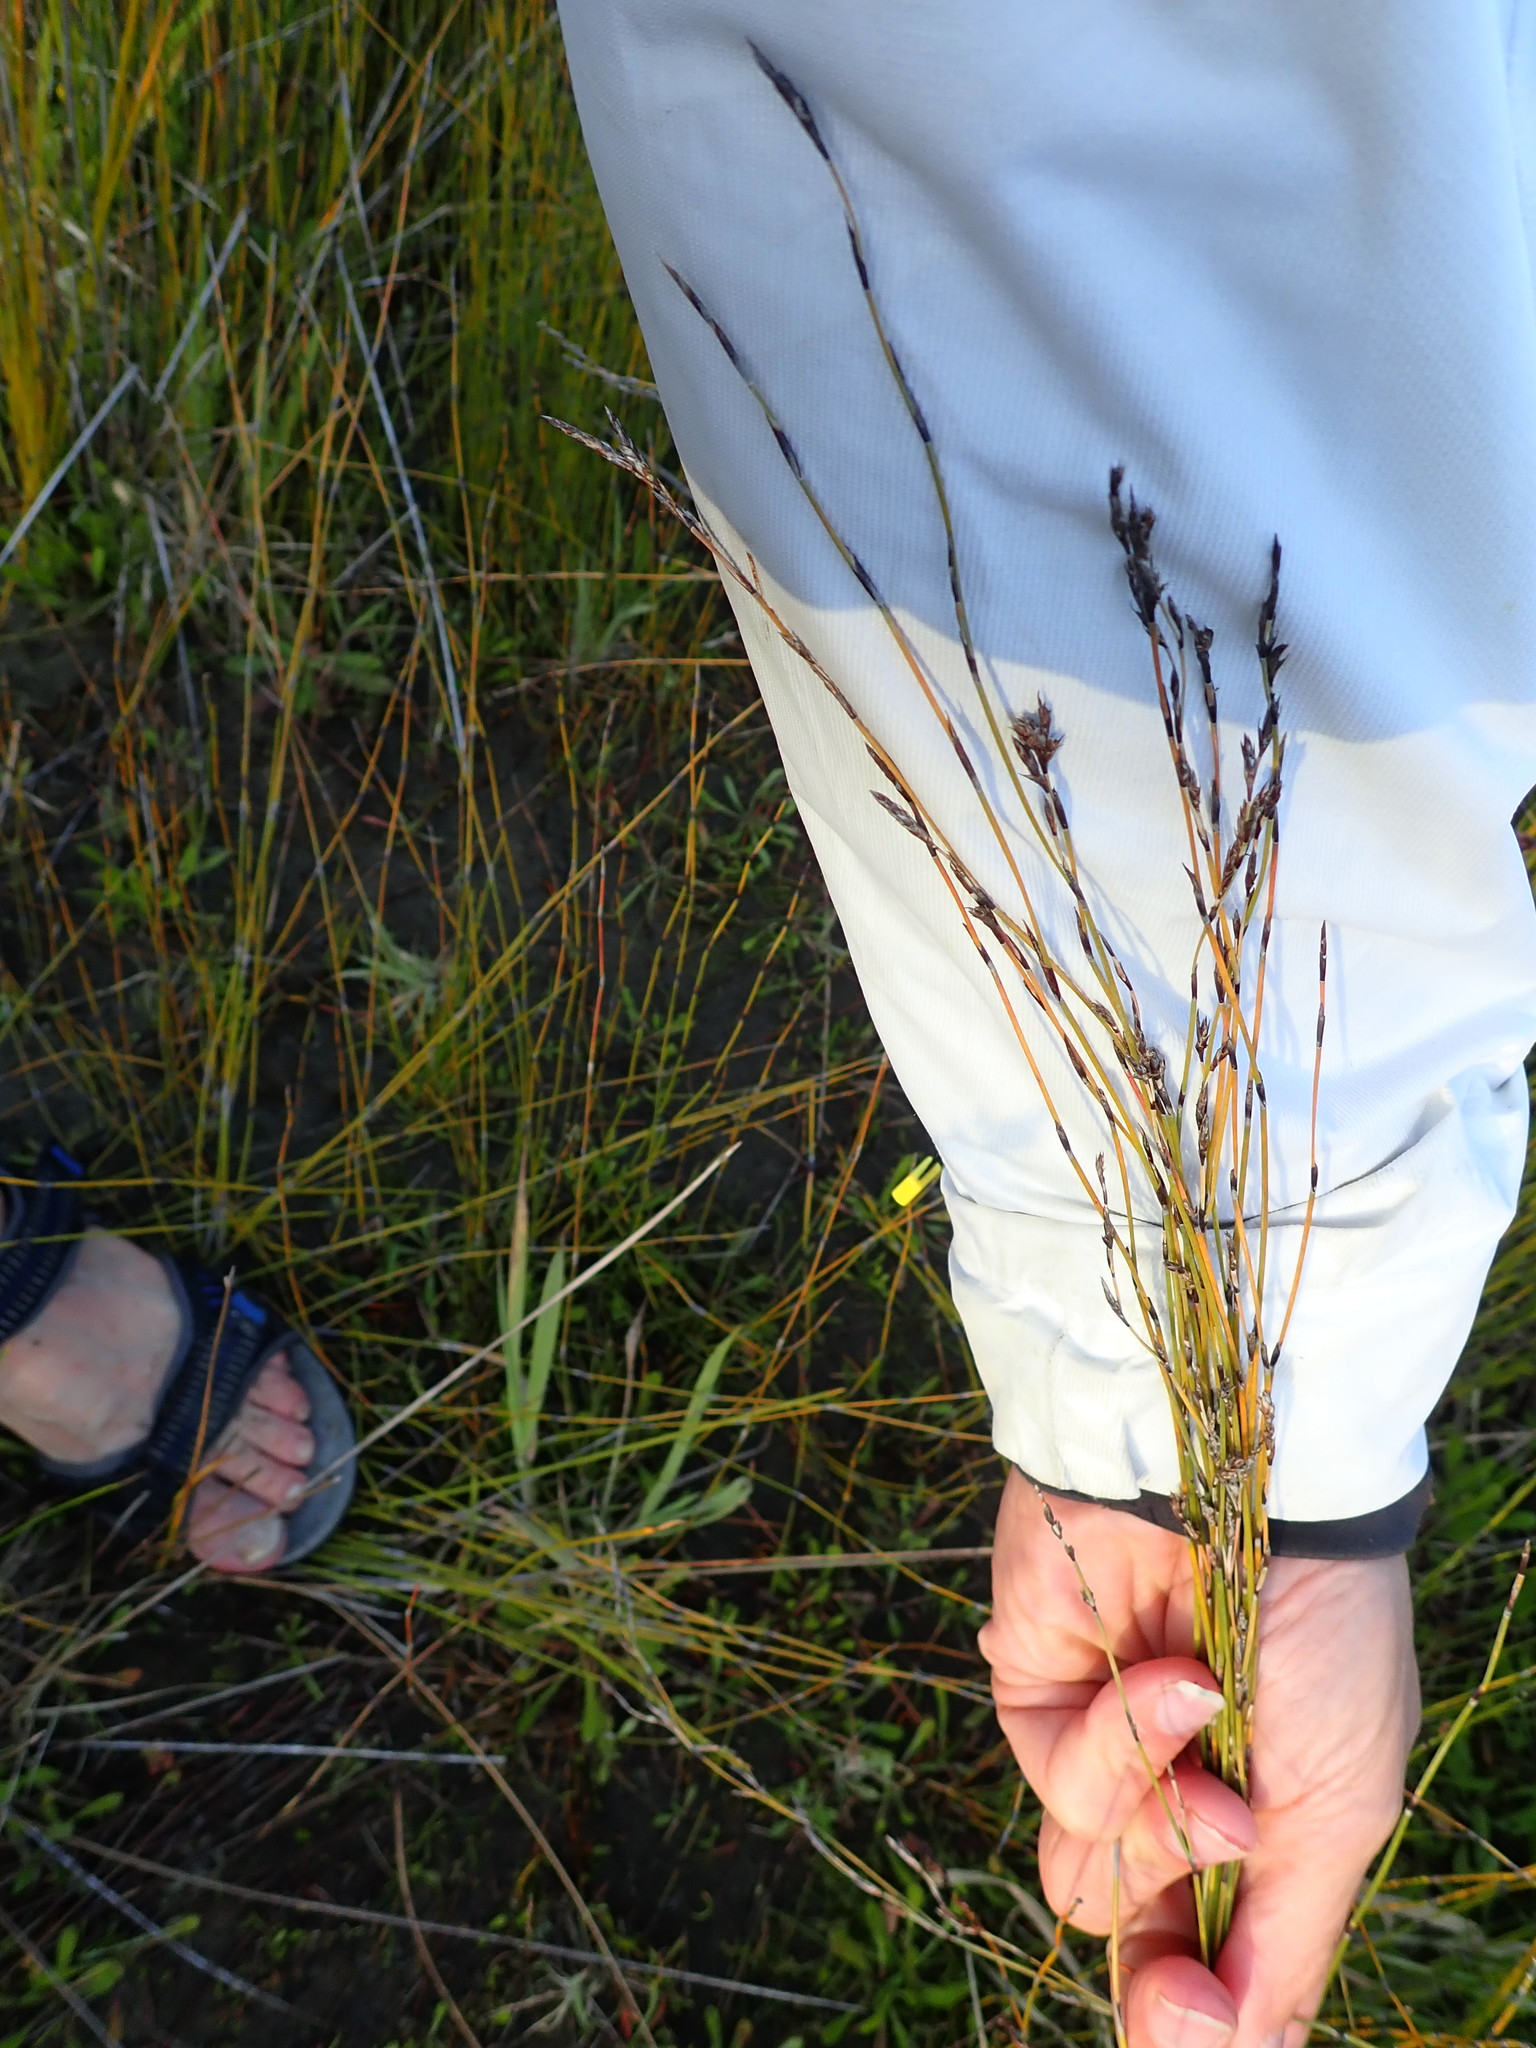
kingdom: Plantae
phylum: Tracheophyta
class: Liliopsida
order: Poales
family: Restionaceae
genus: Apodasmia
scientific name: Apodasmia similis
